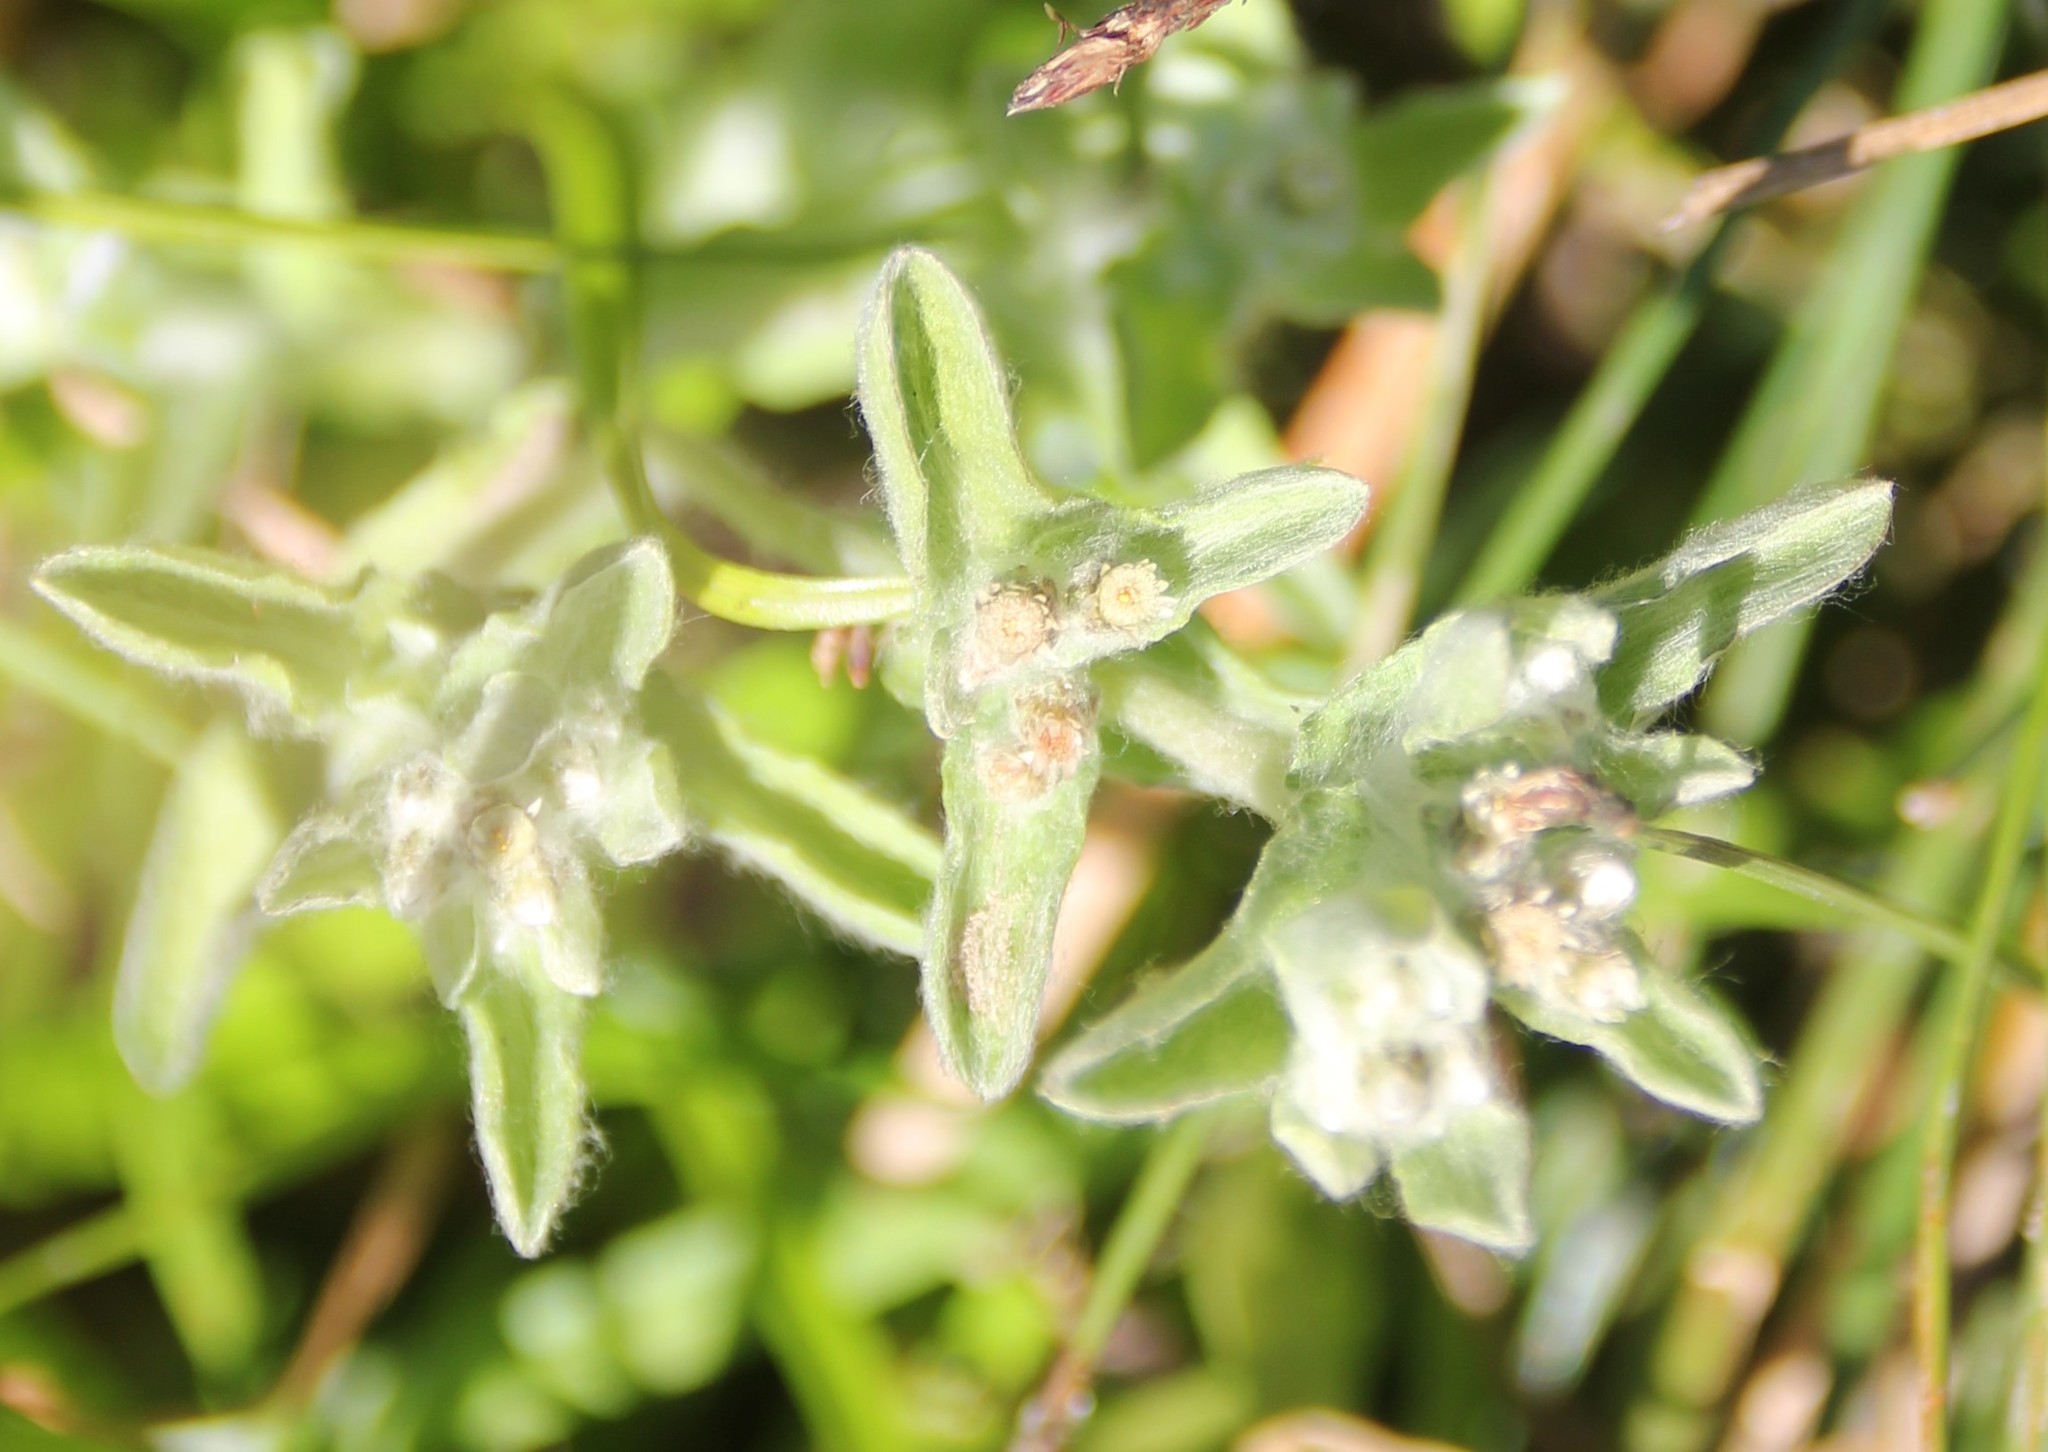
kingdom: Plantae
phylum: Tracheophyta
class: Magnoliopsida
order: Asterales
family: Asteraceae
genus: Gnaphalium
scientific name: Gnaphalium palustre
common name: Western marsh cudweed
